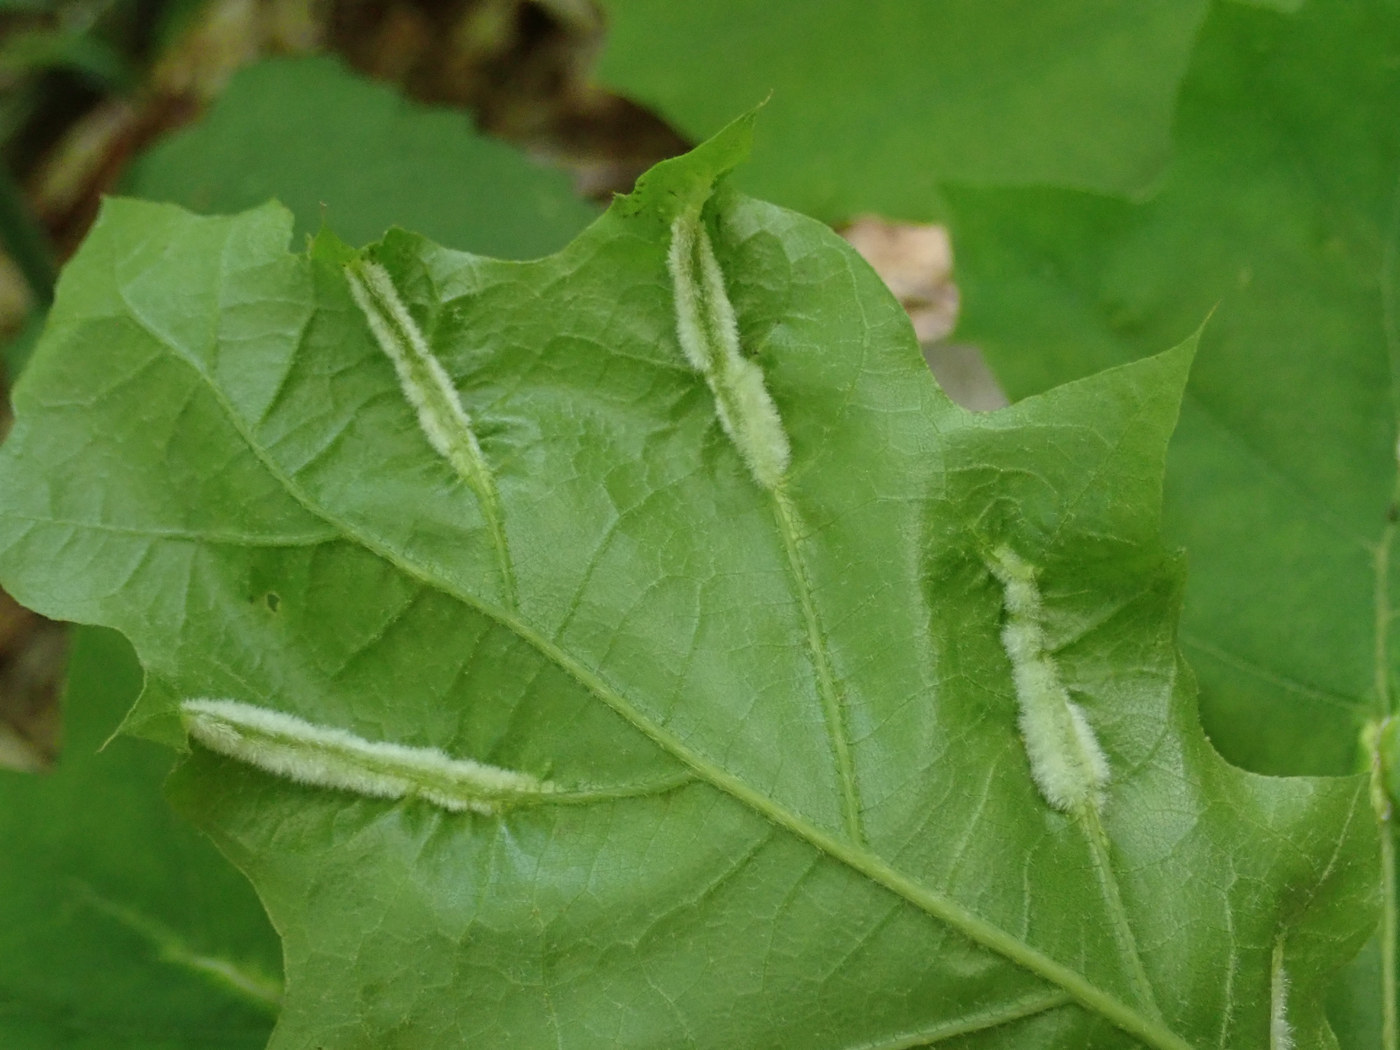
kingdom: Animalia
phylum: Arthropoda
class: Insecta
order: Diptera
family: Cecidomyiidae
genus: Macrodiplosis
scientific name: Macrodiplosis niveipila
